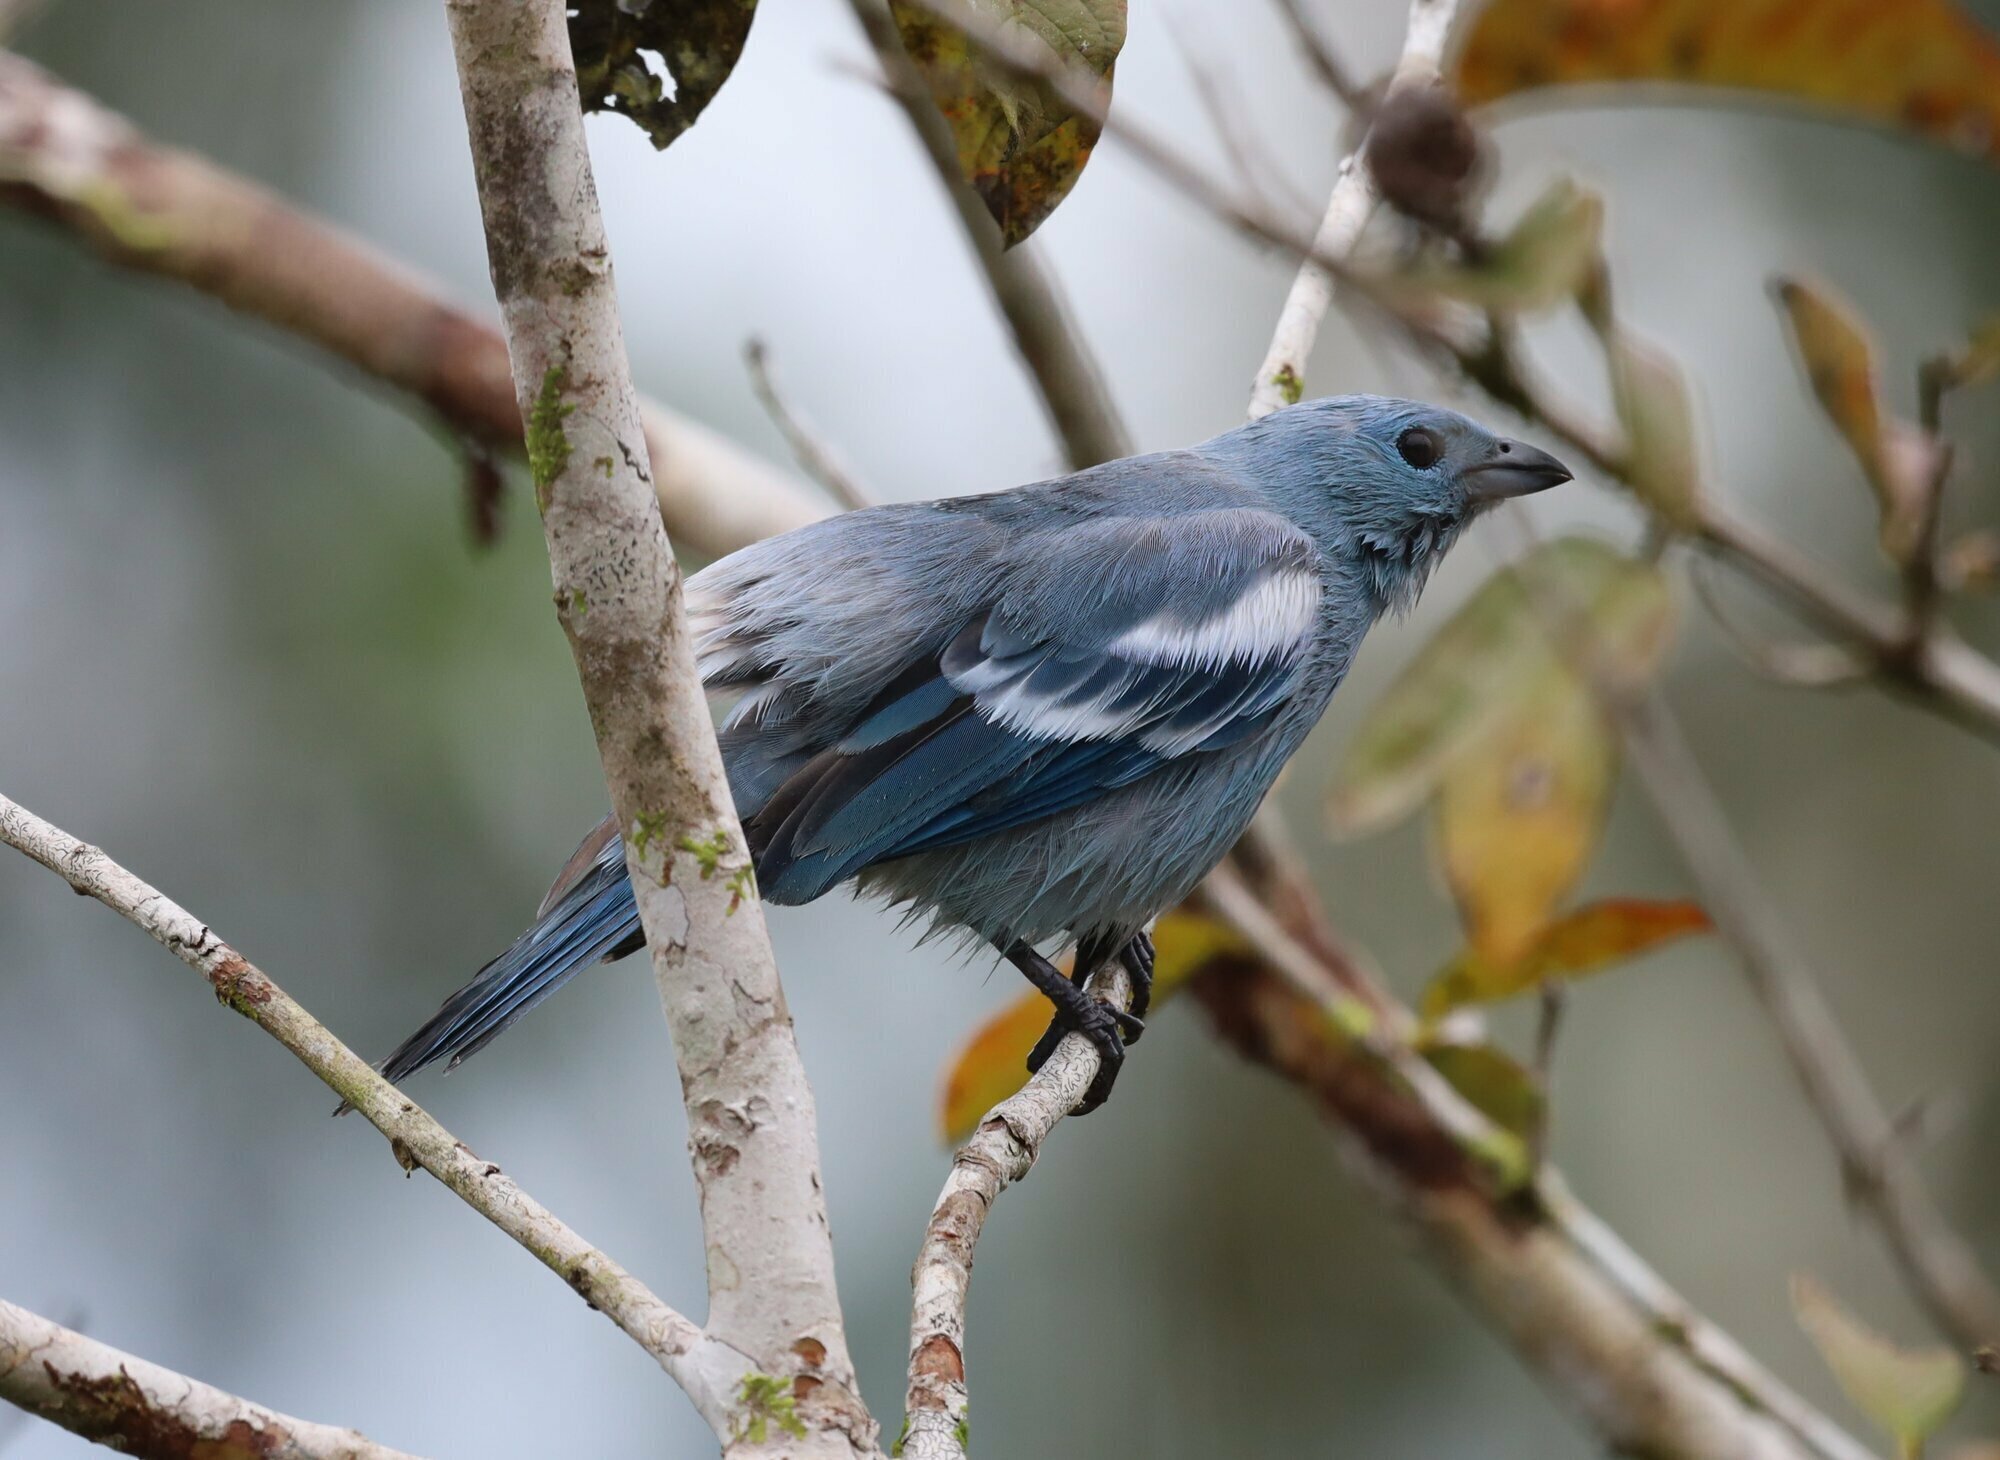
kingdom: Animalia
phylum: Chordata
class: Aves
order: Passeriformes
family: Thraupidae
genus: Thraupis
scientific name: Thraupis episcopus
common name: Blue-grey tanager
